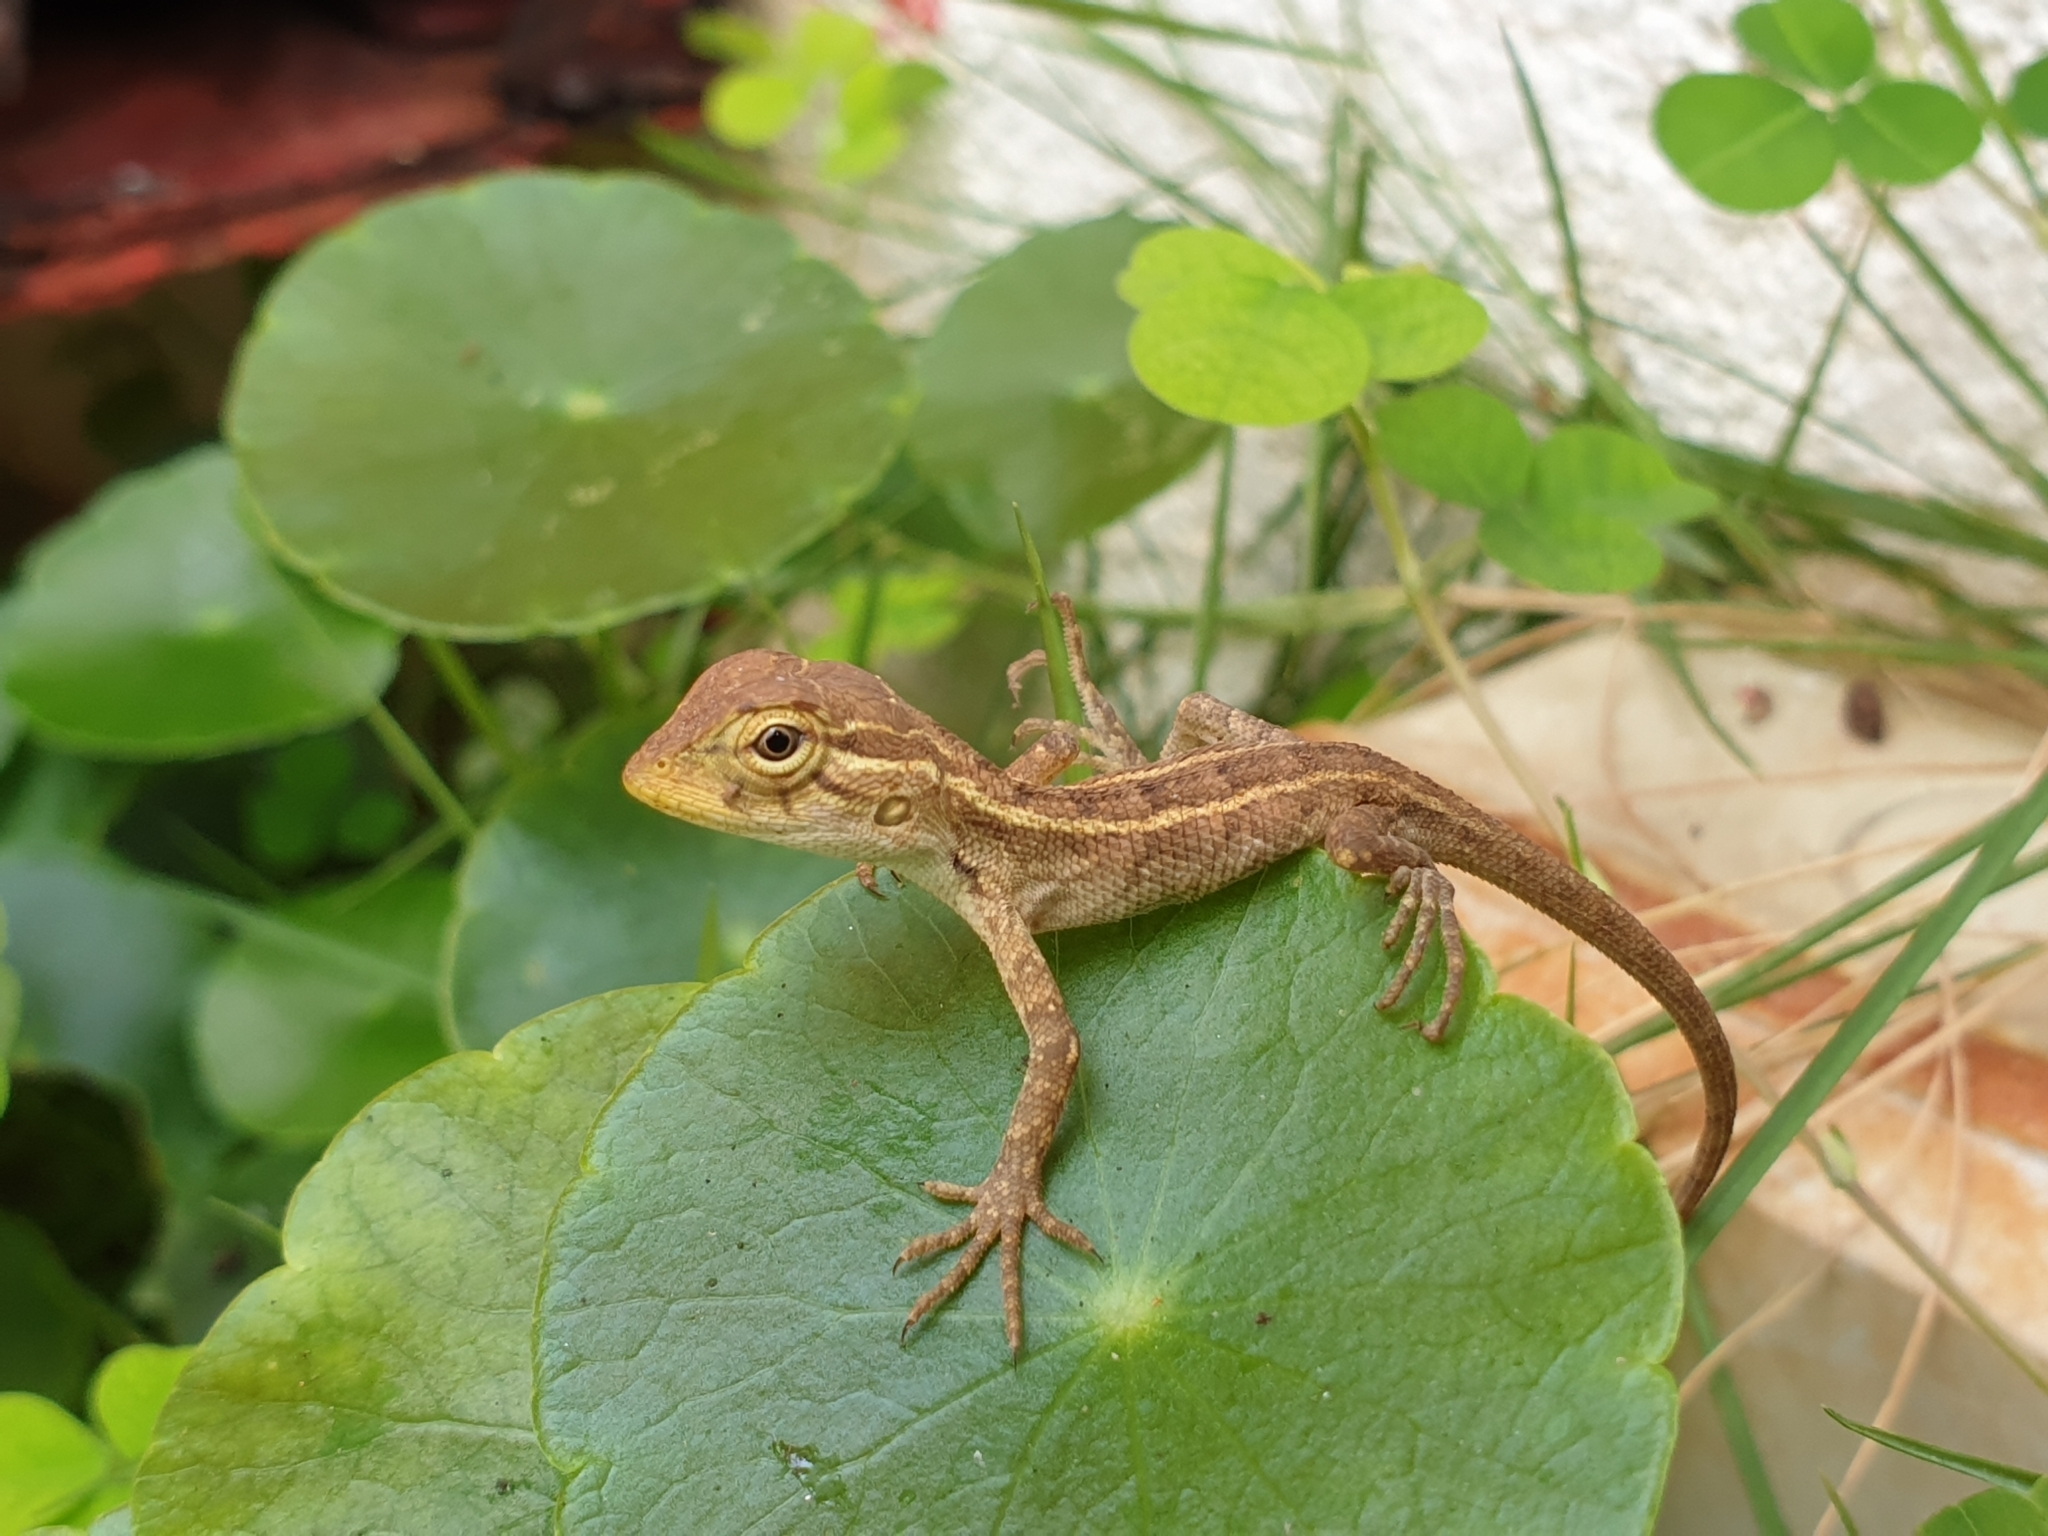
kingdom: Animalia
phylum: Chordata
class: Squamata
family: Agamidae
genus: Calotes
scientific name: Calotes versicolor
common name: Oriental garden lizard
